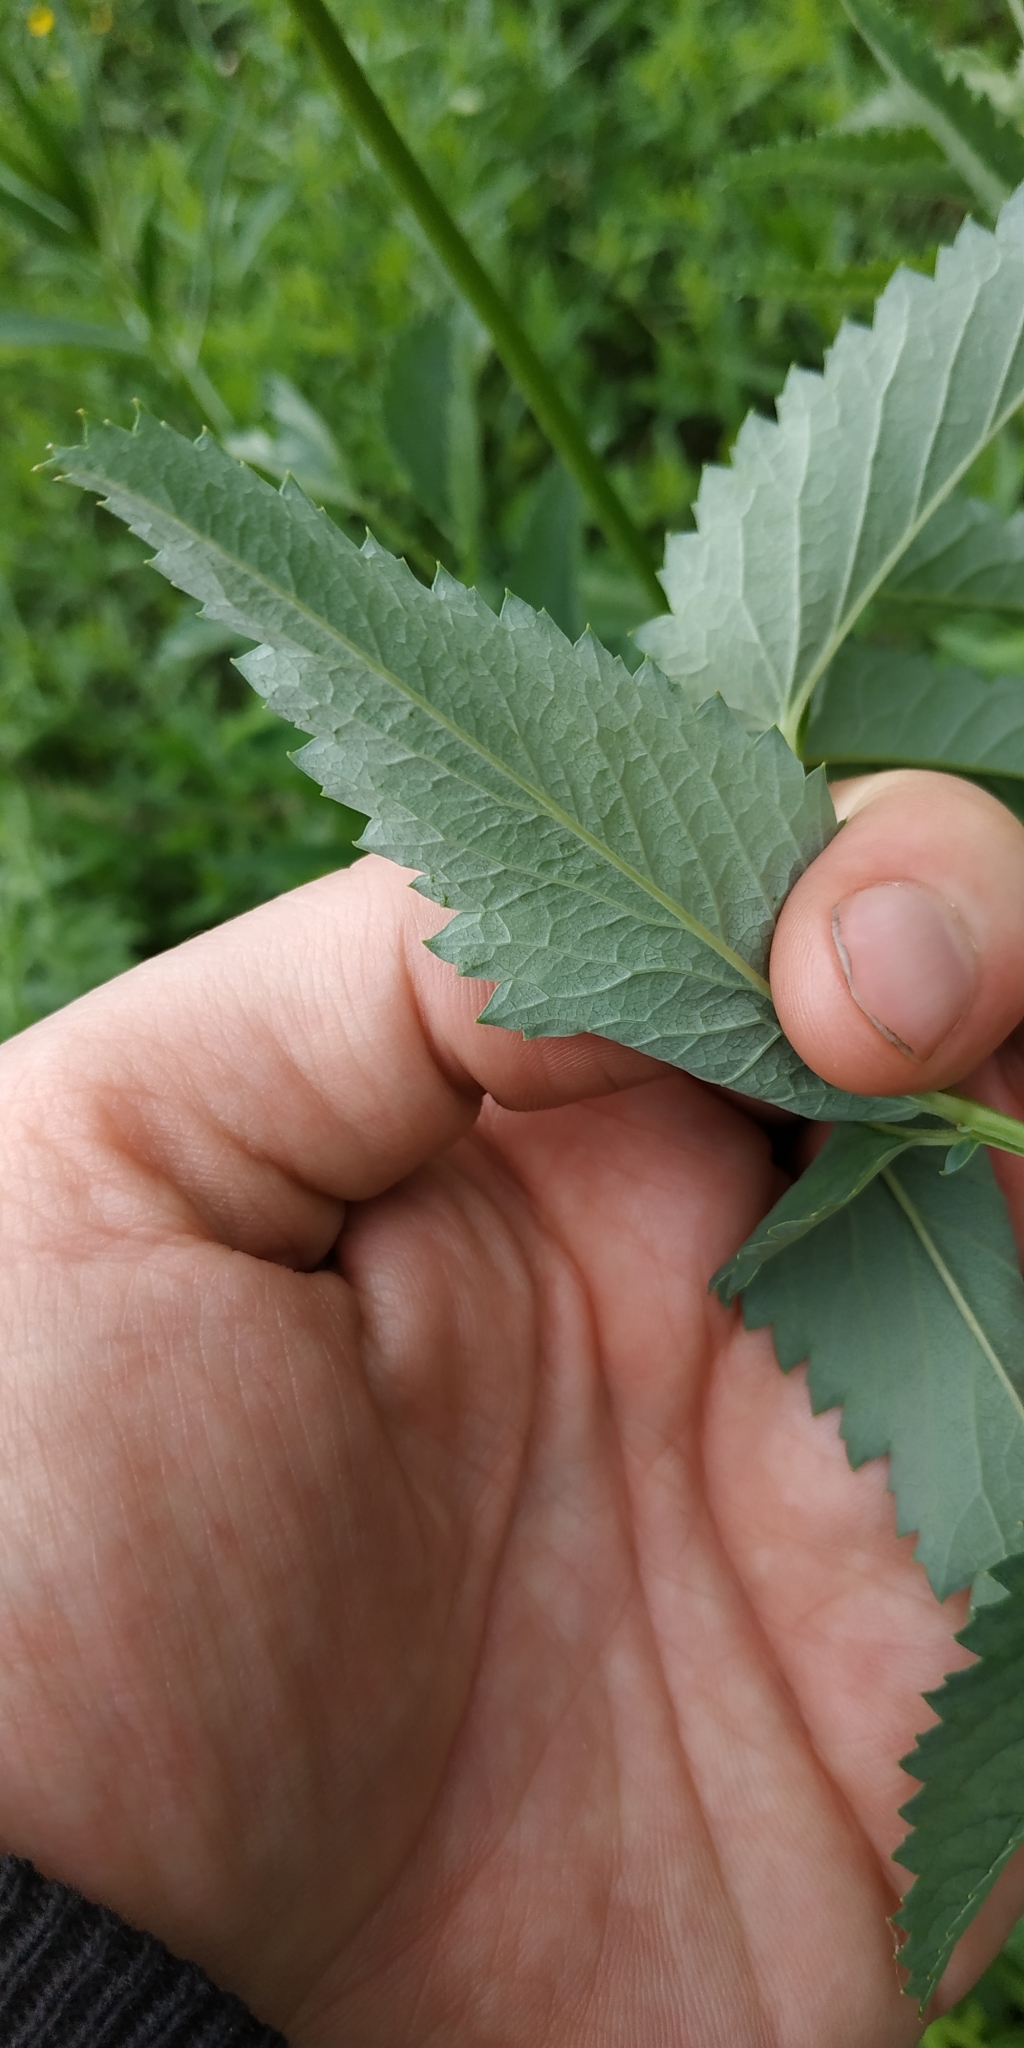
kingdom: Plantae
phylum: Tracheophyta
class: Magnoliopsida
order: Rosales
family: Rosaceae
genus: Sanguisorba
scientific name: Sanguisorba officinalis
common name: Great burnet
